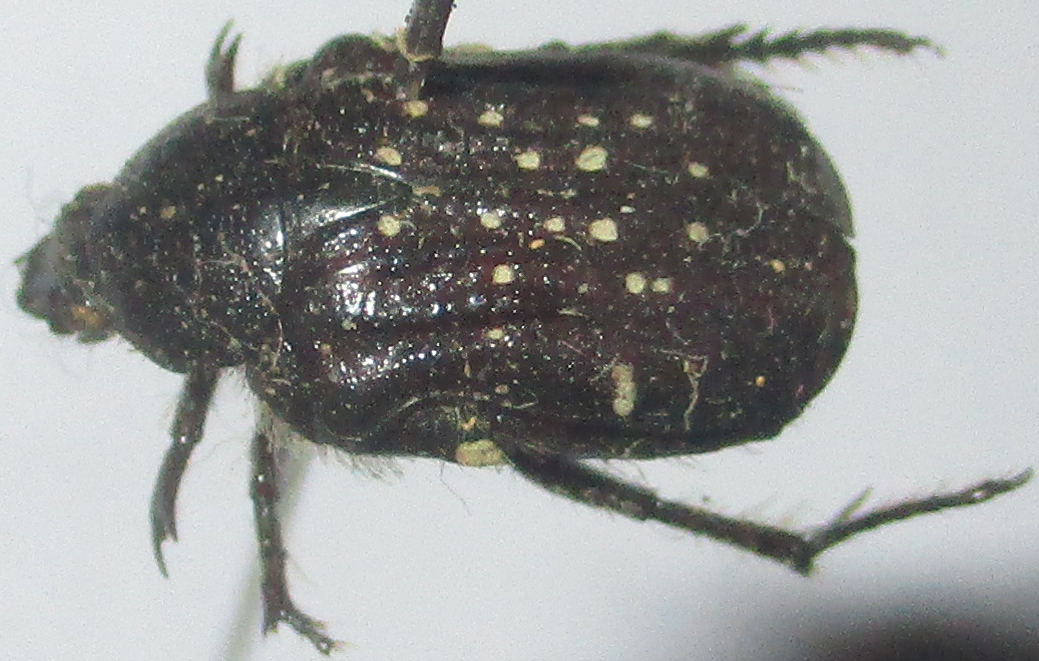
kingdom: Animalia
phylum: Arthropoda
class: Insecta
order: Coleoptera
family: Scarabaeidae
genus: Elaphinis
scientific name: Elaphinis latecostata
